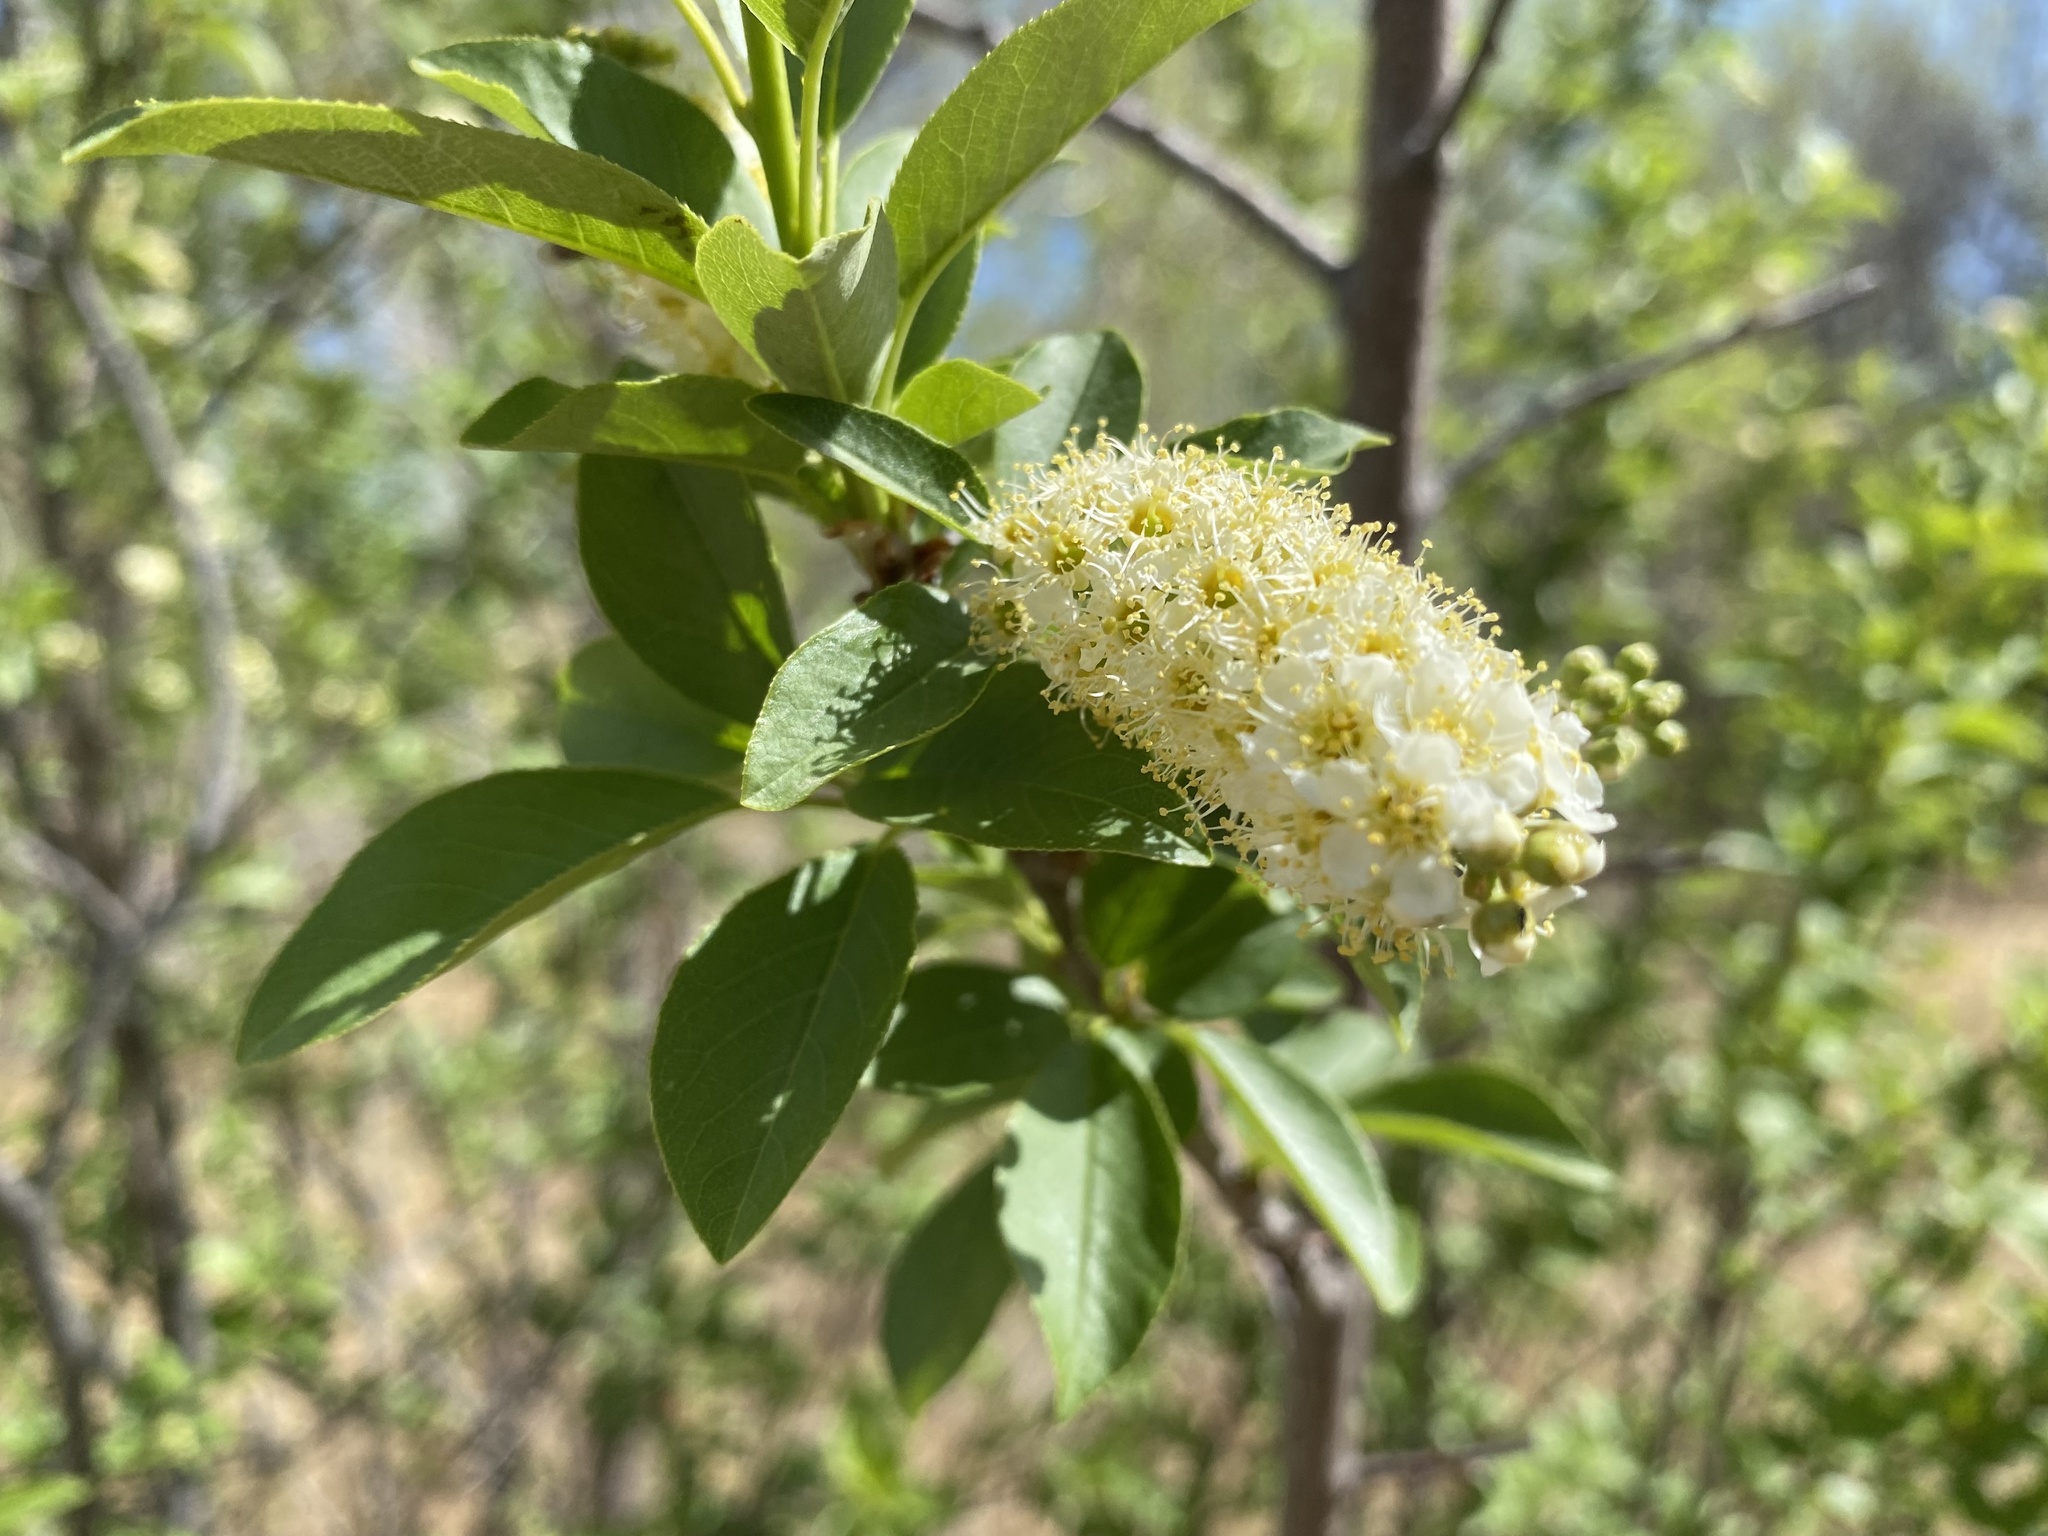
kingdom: Plantae
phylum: Tracheophyta
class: Magnoliopsida
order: Rosales
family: Rosaceae
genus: Prunus
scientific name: Prunus virginiana
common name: Chokecherry
